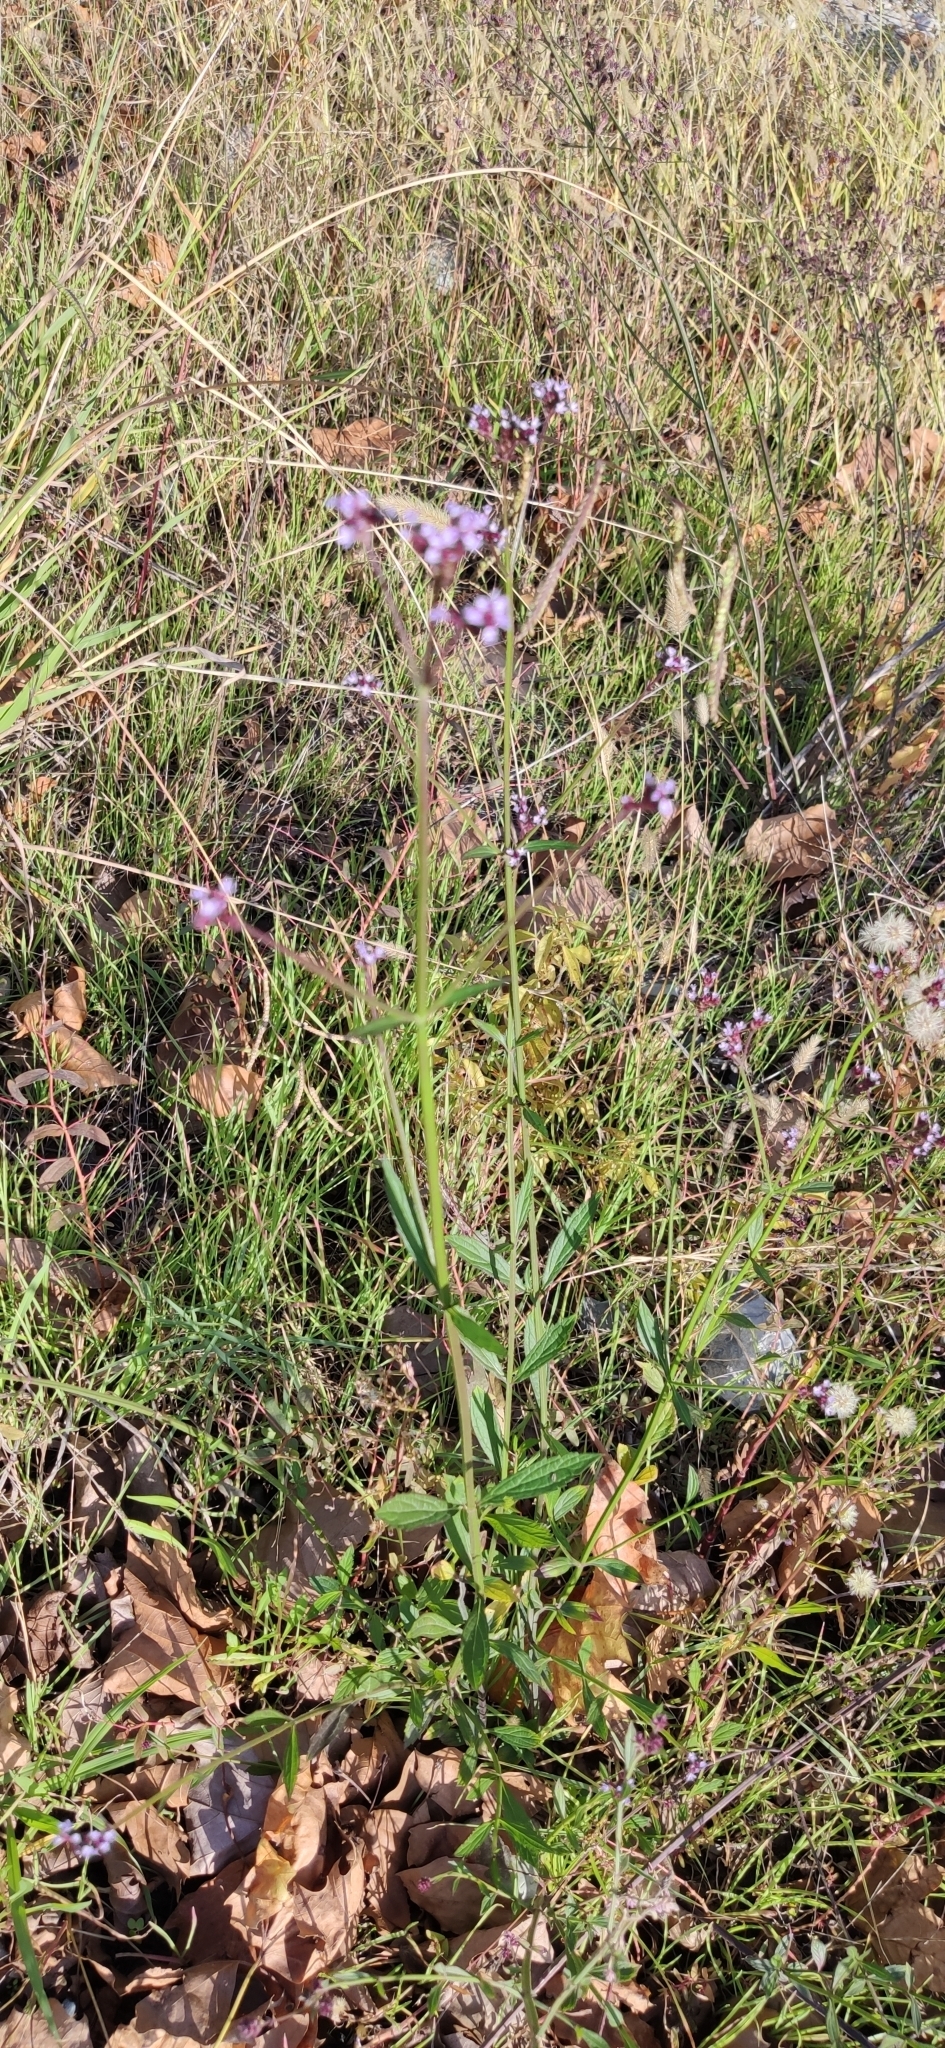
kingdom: Plantae
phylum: Tracheophyta
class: Magnoliopsida
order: Lamiales
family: Verbenaceae
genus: Verbena
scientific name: Verbena officinalis
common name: Vervain
